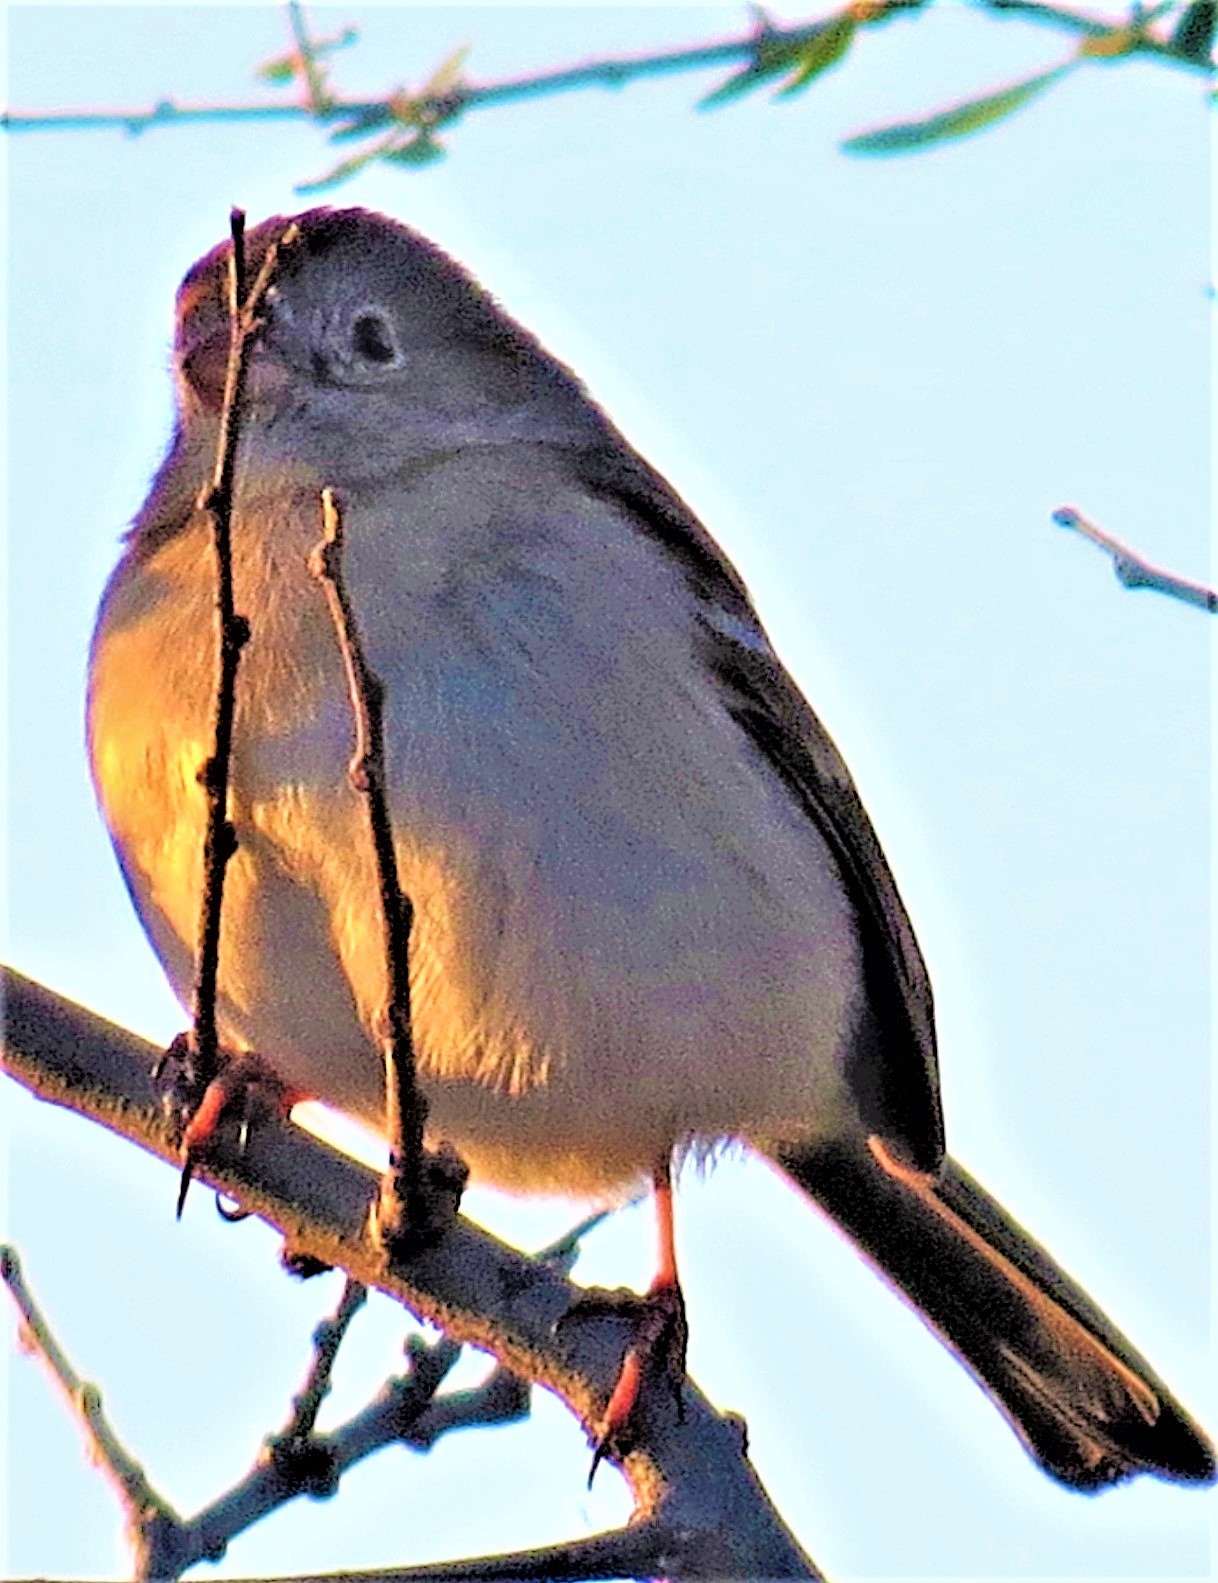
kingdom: Animalia
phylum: Chordata
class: Aves
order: Passeriformes
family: Passerellidae
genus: Spizella
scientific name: Spizella pusilla
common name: Field sparrow
